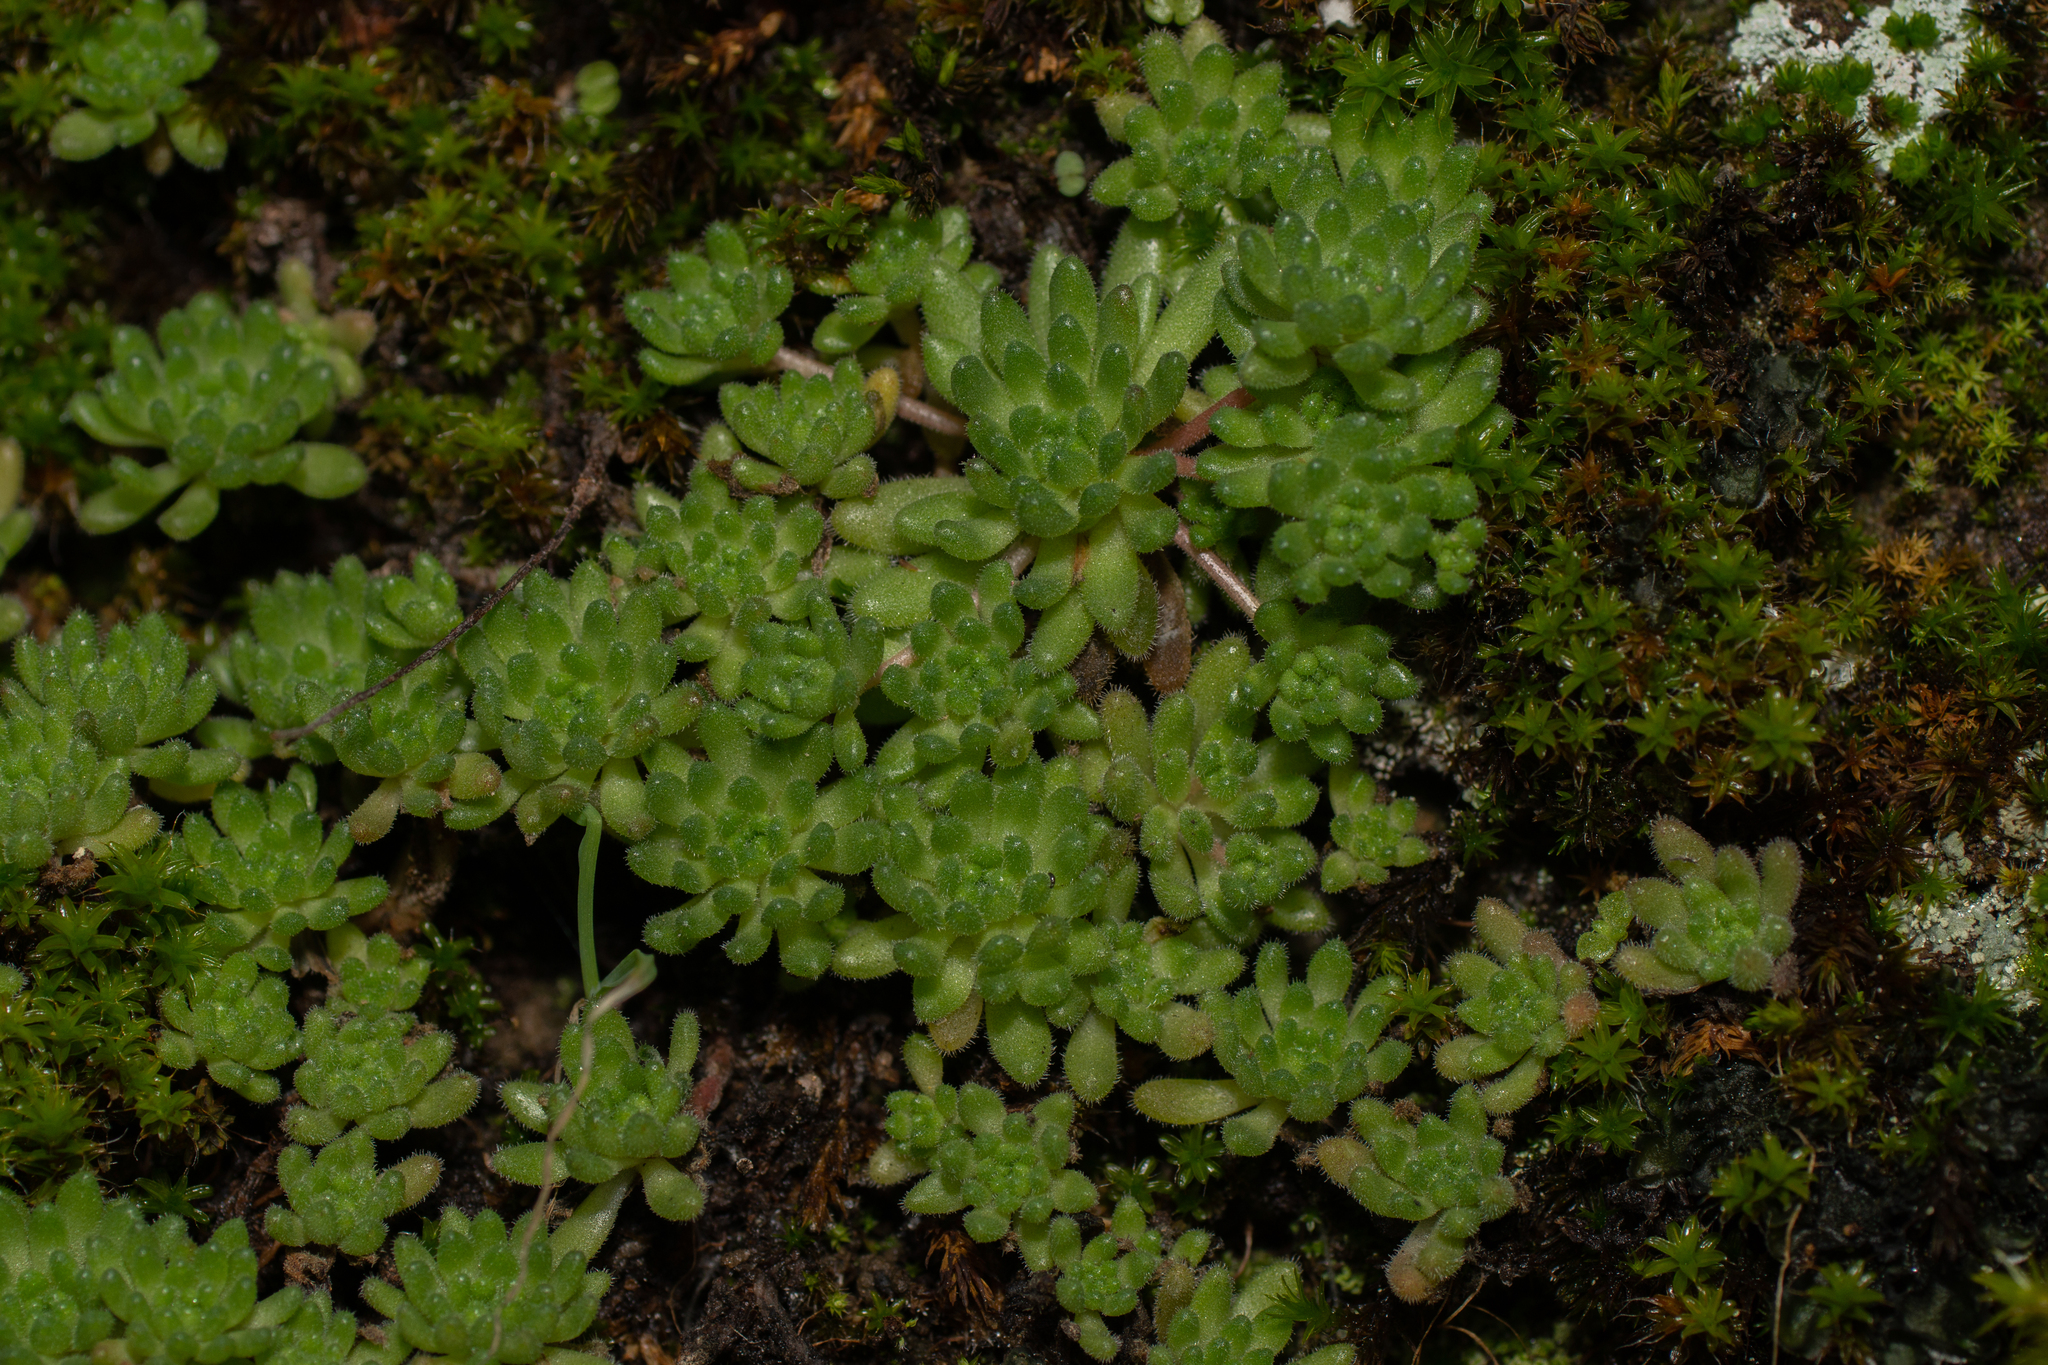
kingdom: Plantae
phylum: Tracheophyta
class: Magnoliopsida
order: Saxifragales
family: Crassulaceae
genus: Sedum
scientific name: Sedum hirsutum
